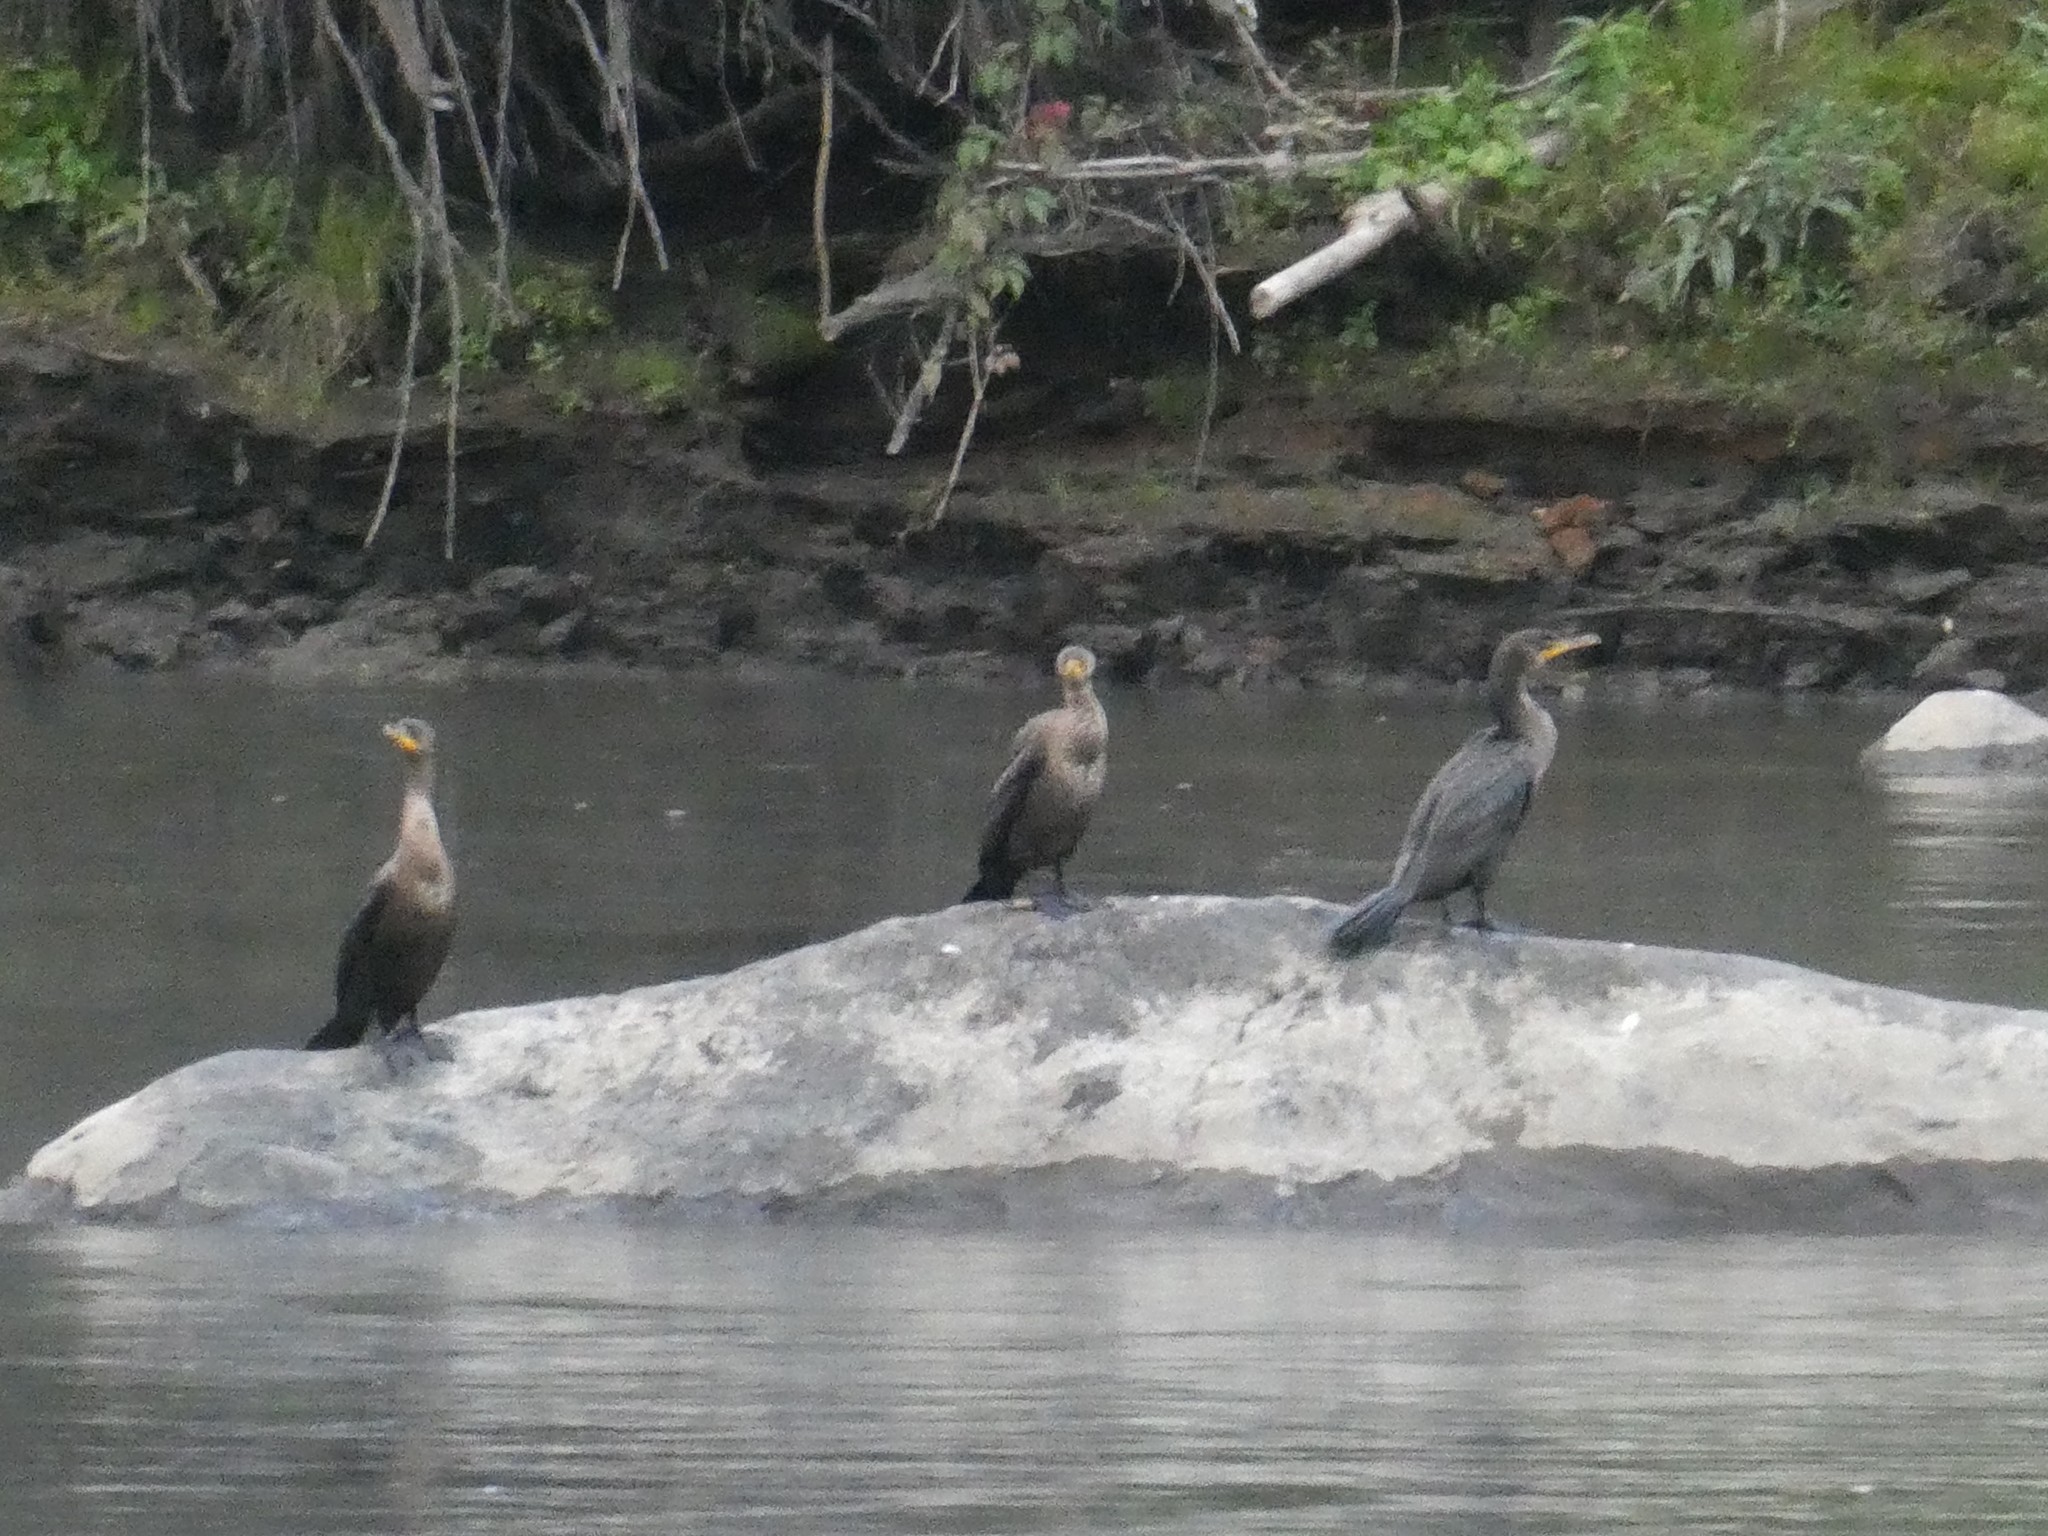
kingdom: Animalia
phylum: Chordata
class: Aves
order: Suliformes
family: Phalacrocoracidae
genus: Phalacrocorax
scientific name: Phalacrocorax auritus
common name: Double-crested cormorant
